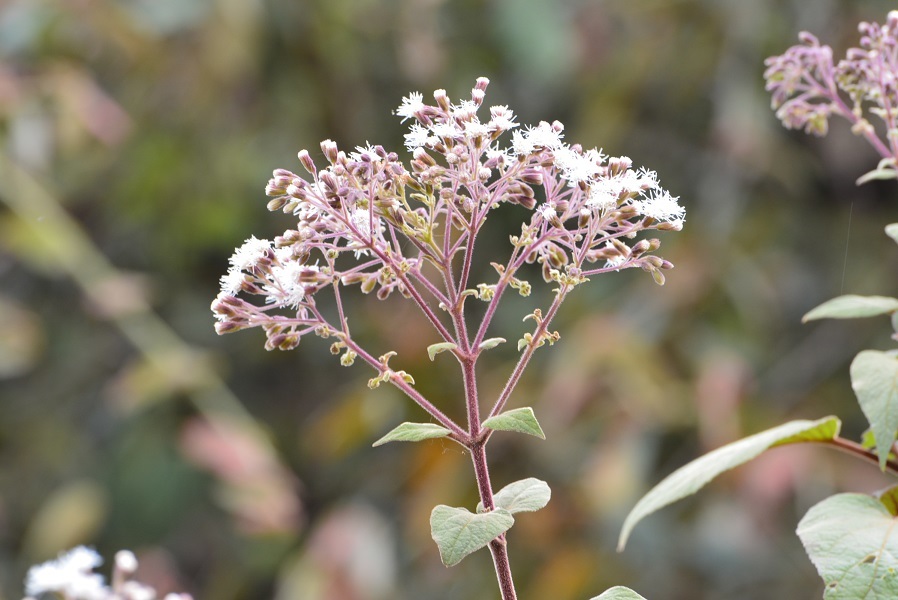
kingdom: Plantae
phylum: Tracheophyta
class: Magnoliopsida
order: Asterales
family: Asteraceae
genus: Bartlettina
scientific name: Bartlettina sordida
